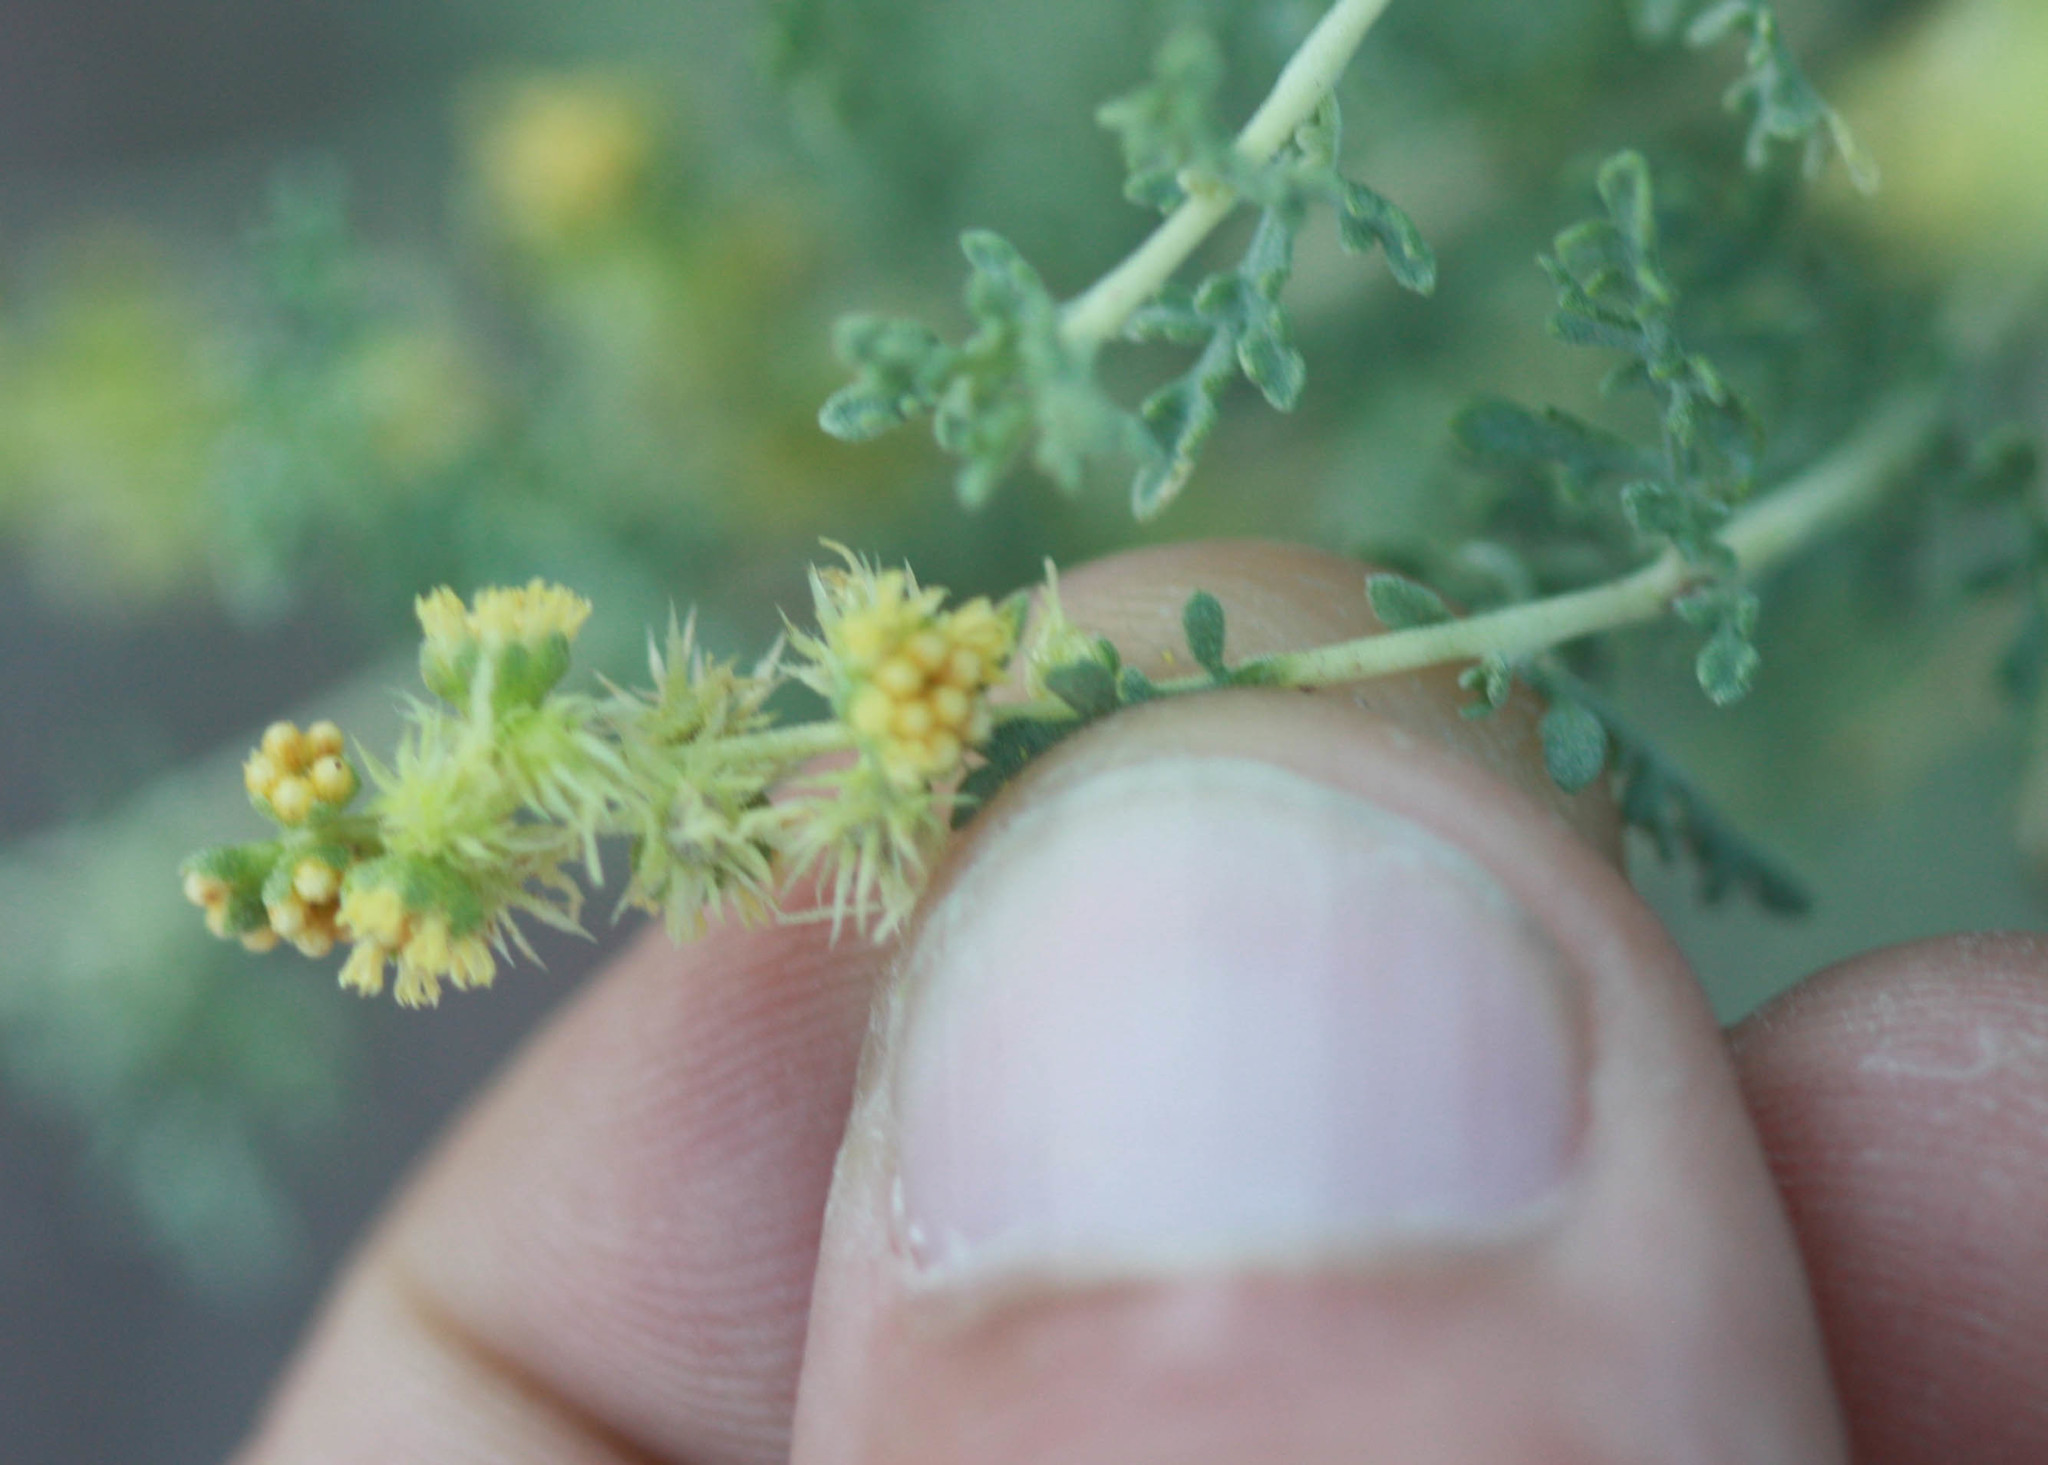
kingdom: Plantae
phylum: Tracheophyta
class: Magnoliopsida
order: Asterales
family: Asteraceae
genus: Ambrosia
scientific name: Ambrosia dumosa
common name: Bur-sage
